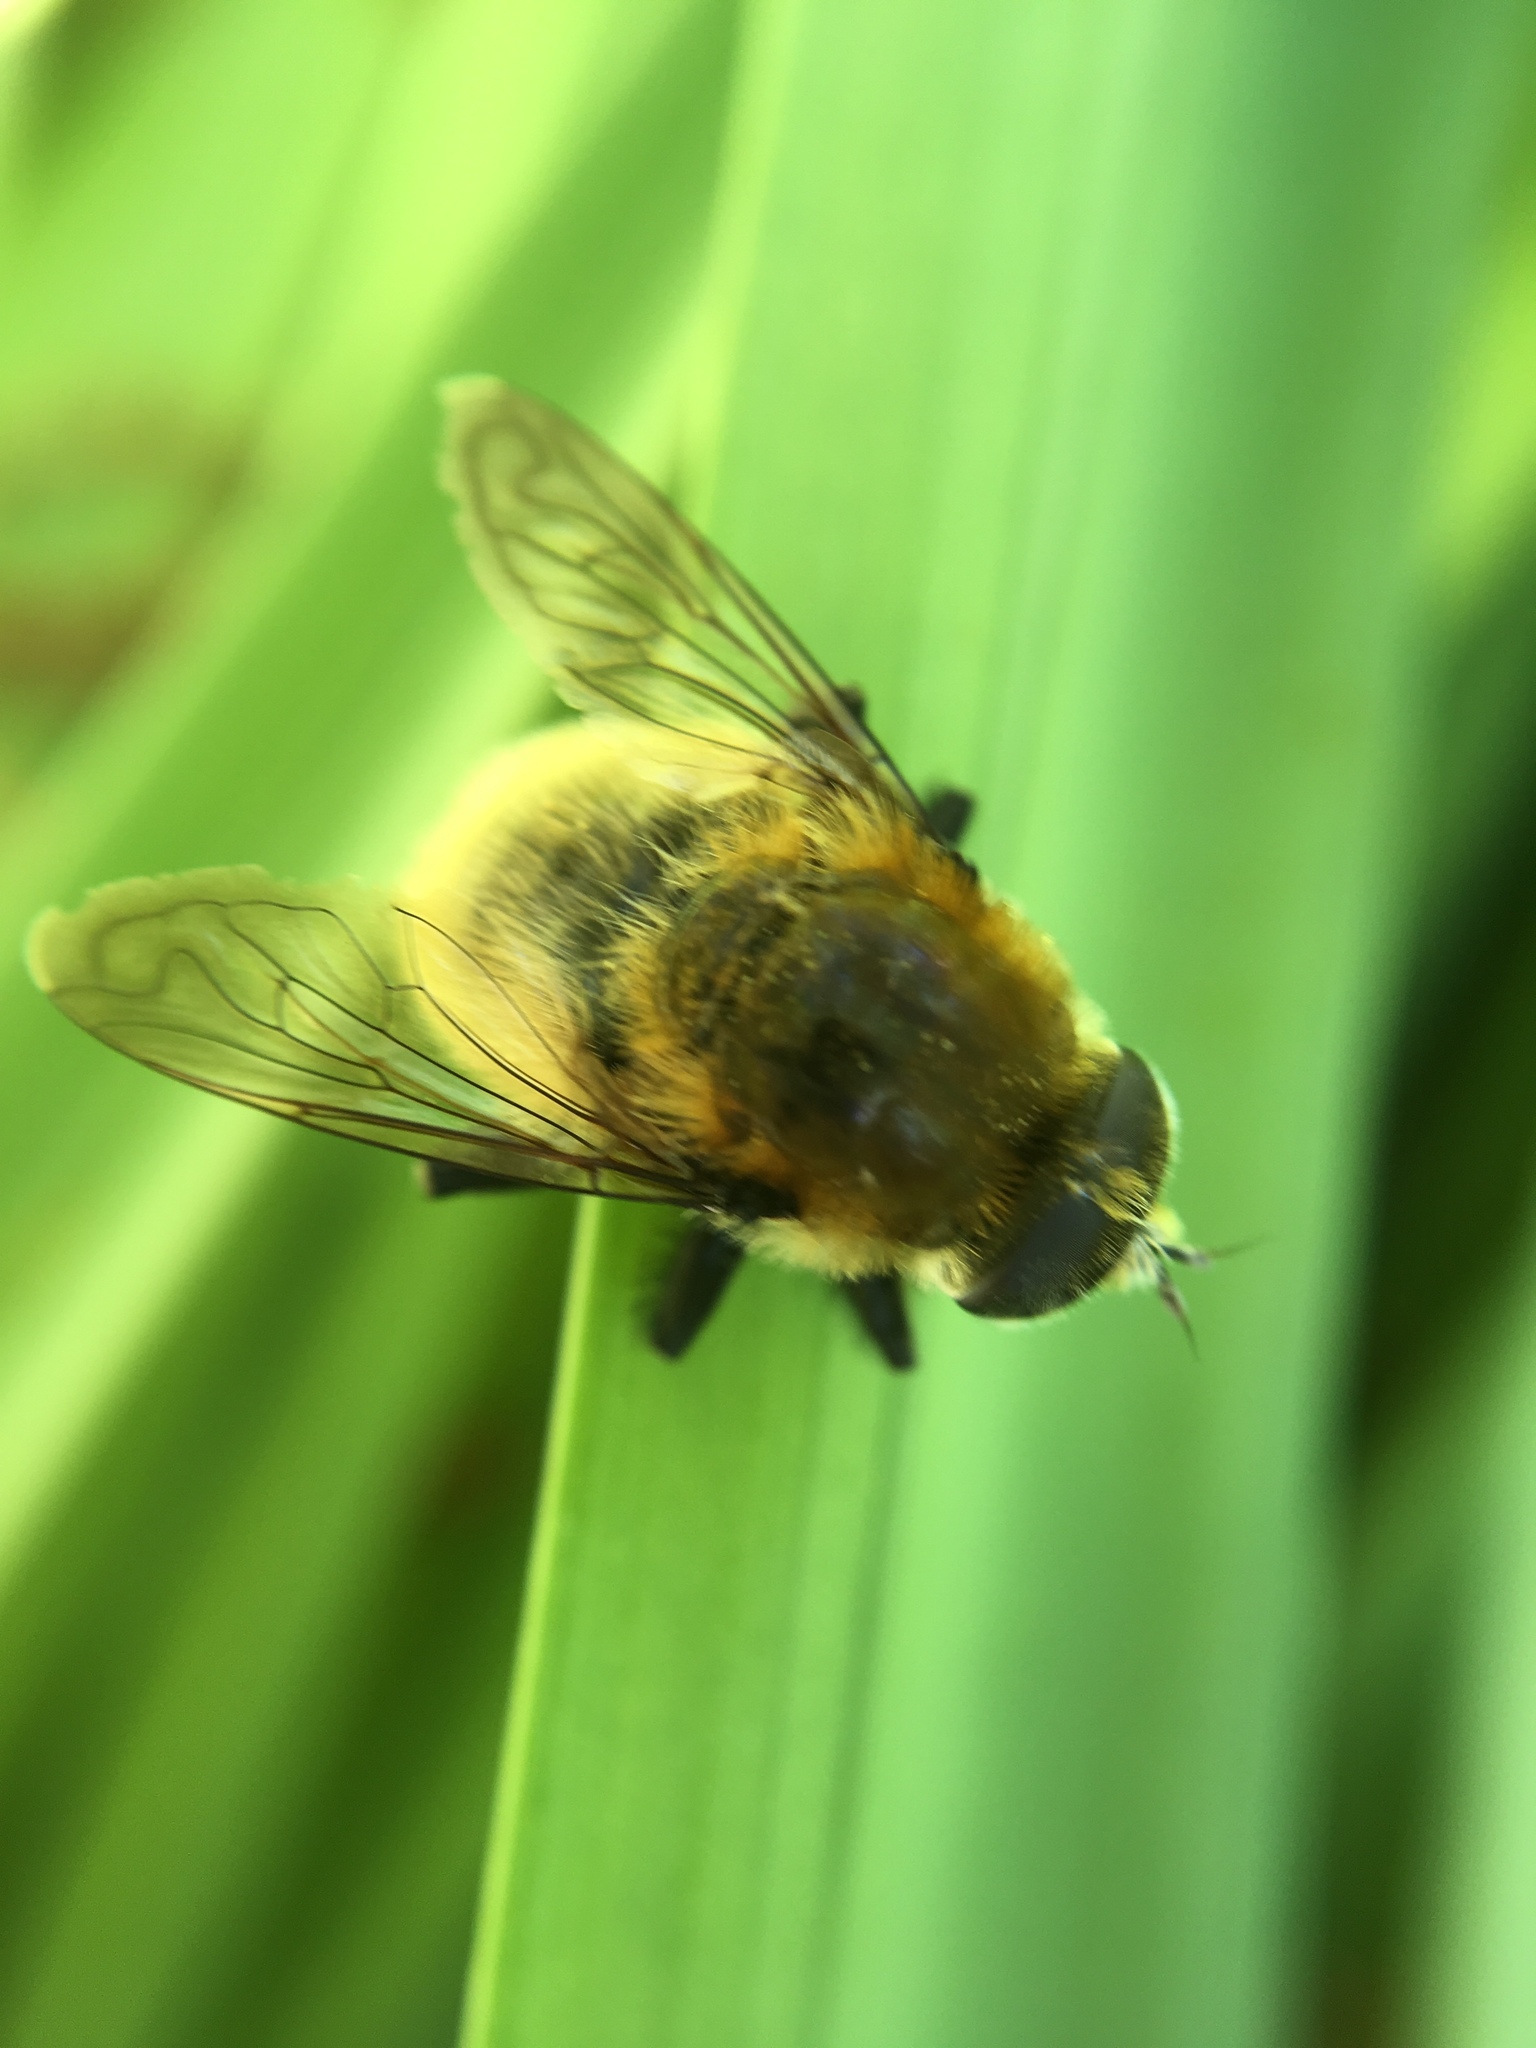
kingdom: Animalia
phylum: Arthropoda
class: Insecta
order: Diptera
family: Syrphidae
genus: Merodon
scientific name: Merodon equestris
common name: Greater bulb-fly
